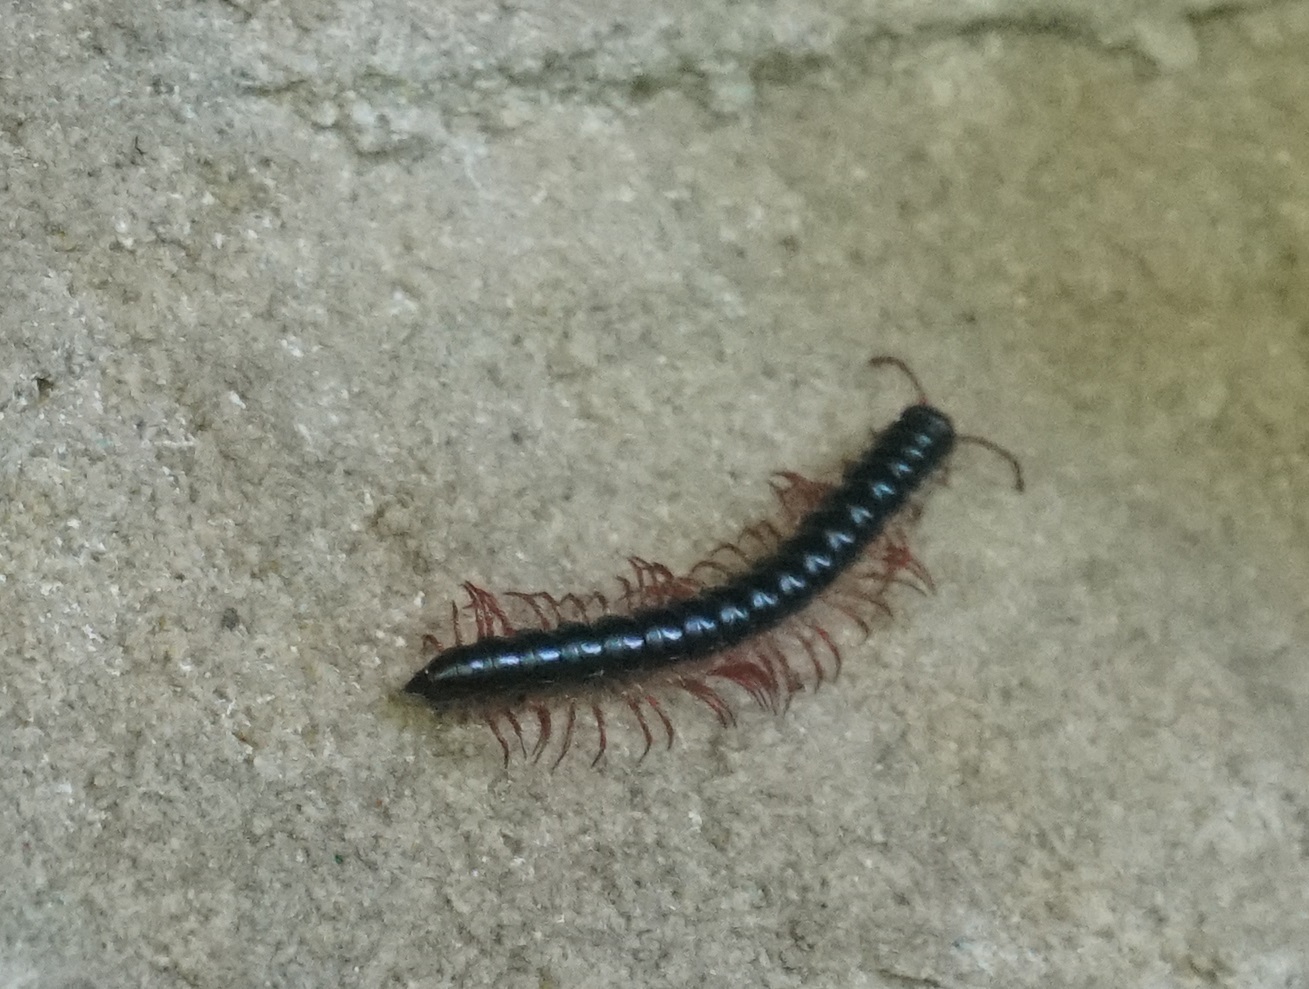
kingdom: Animalia
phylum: Arthropoda
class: Diplopoda
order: Polydesmida
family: Paradoxosomatidae
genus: Heterocladosoma
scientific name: Heterocladosoma
